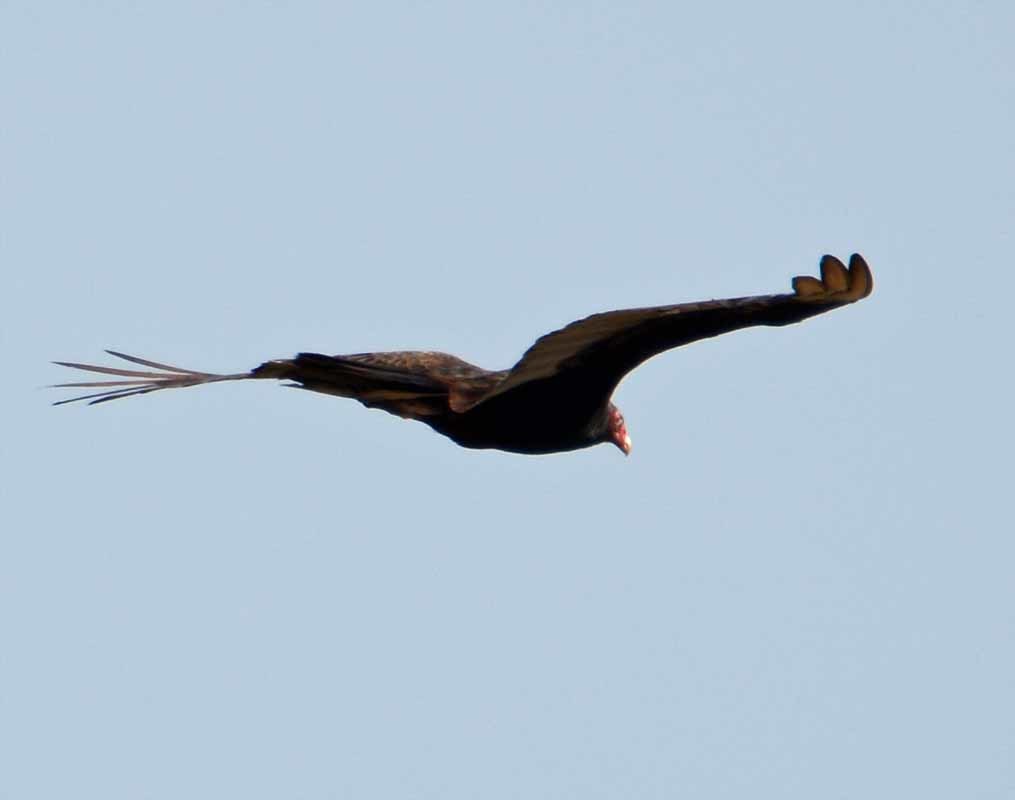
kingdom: Animalia
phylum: Chordata
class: Aves
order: Accipitriformes
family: Cathartidae
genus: Cathartes
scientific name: Cathartes aura
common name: Turkey vulture
